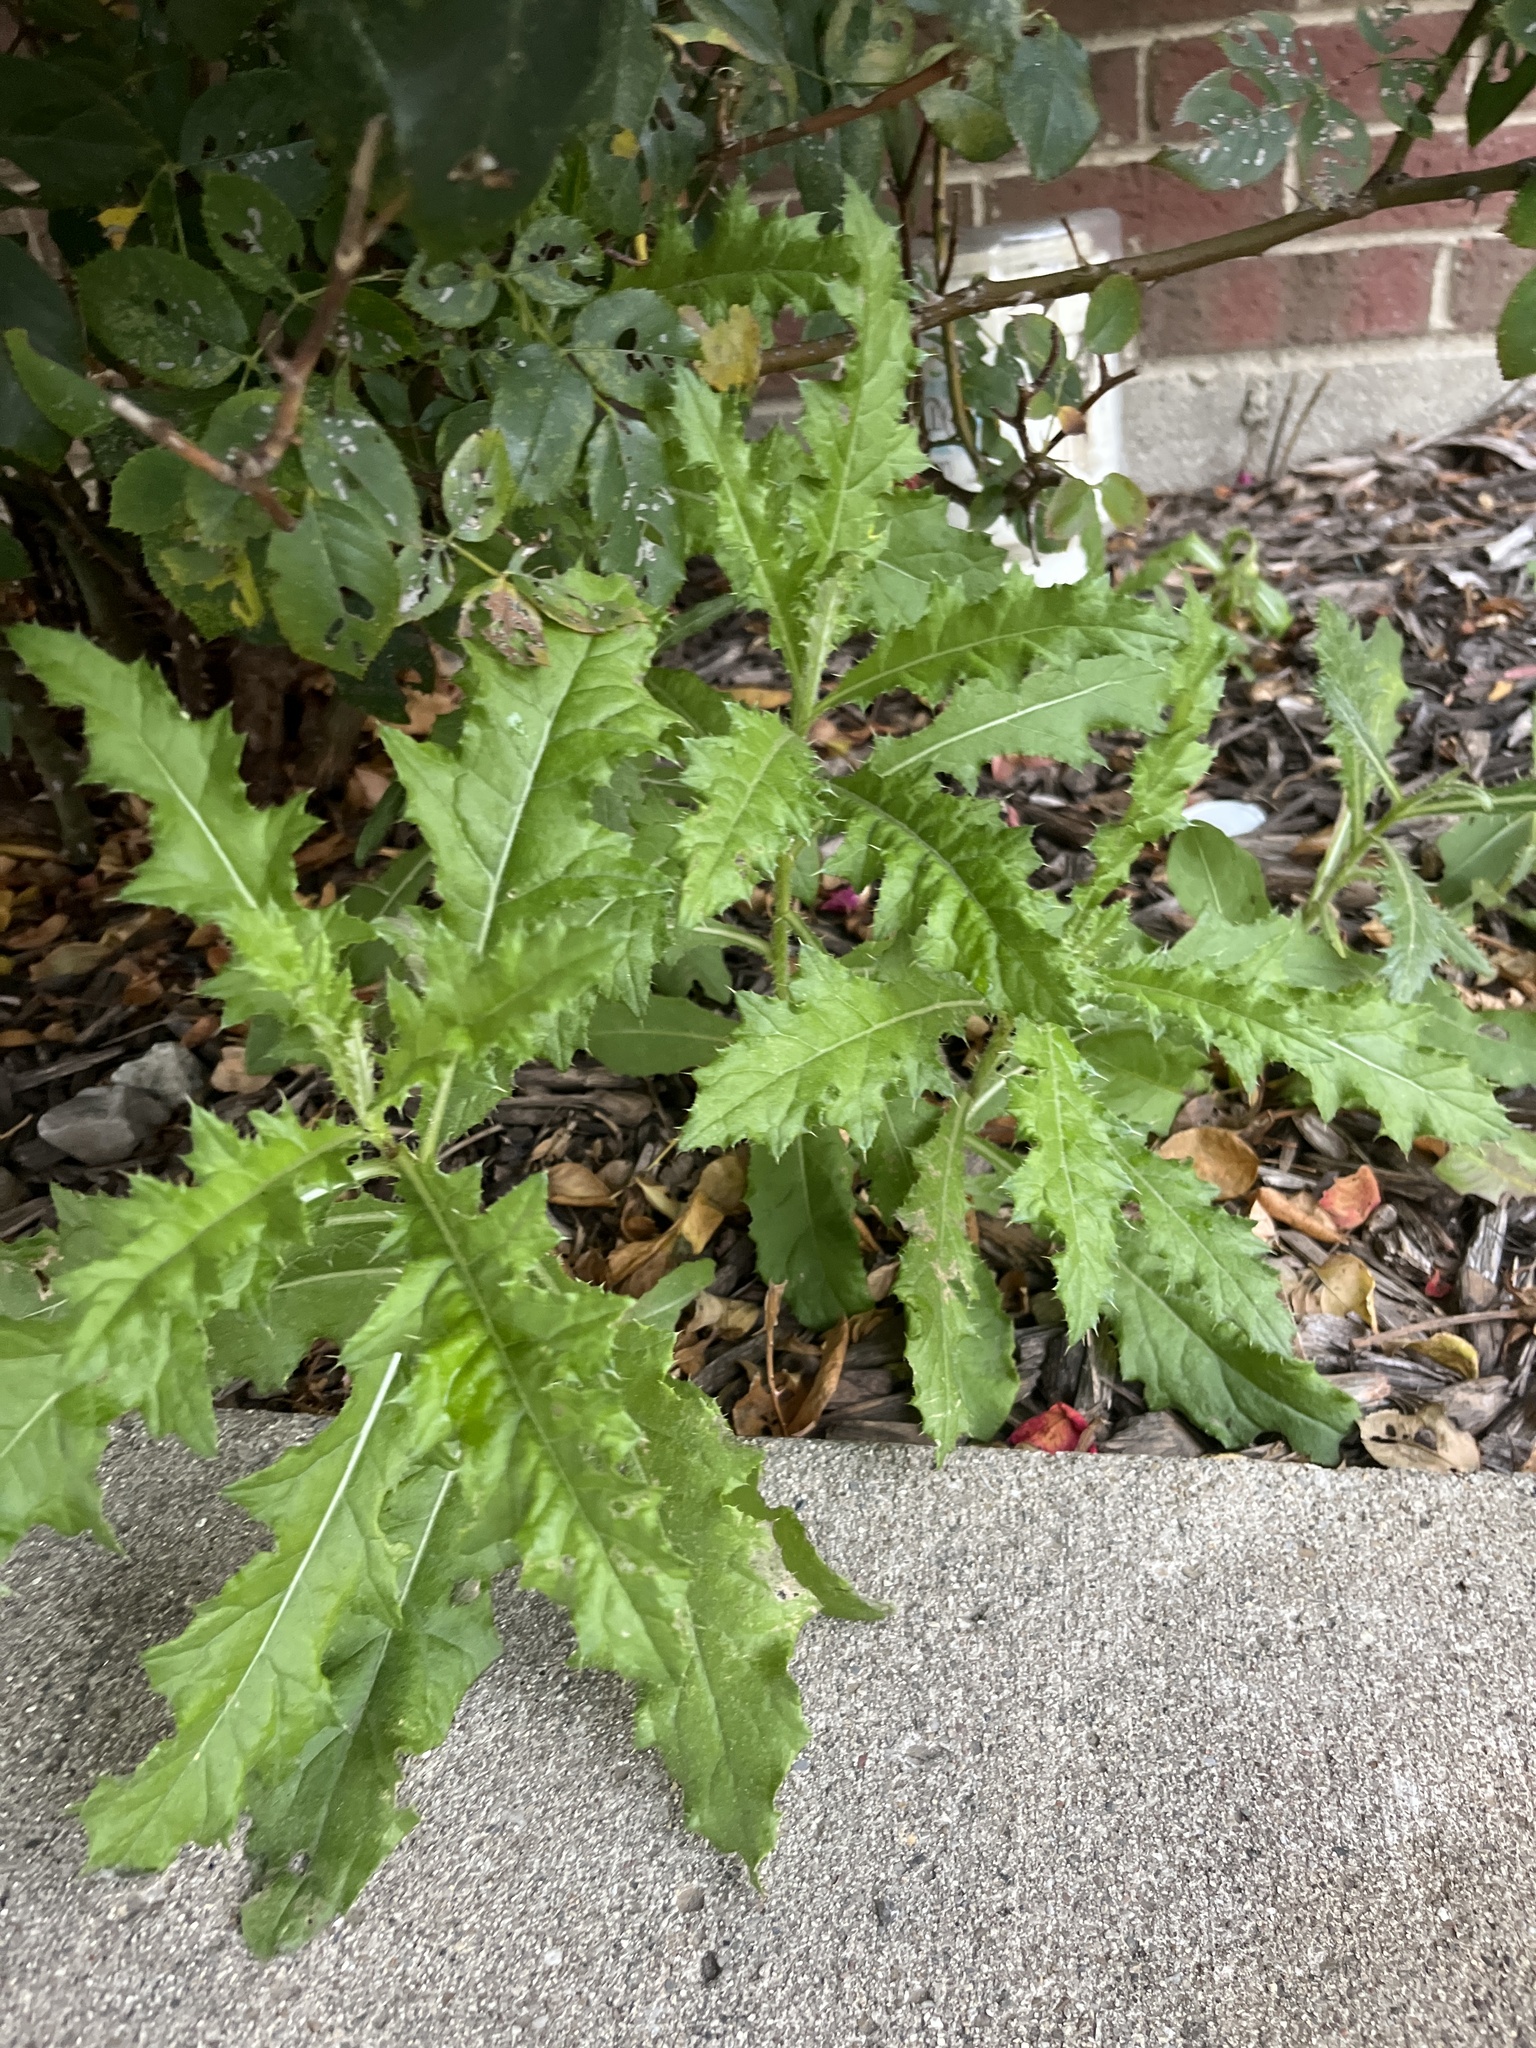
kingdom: Plantae
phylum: Tracheophyta
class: Magnoliopsida
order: Asterales
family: Asteraceae
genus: Cirsium
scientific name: Cirsium arvense
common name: Creeping thistle
